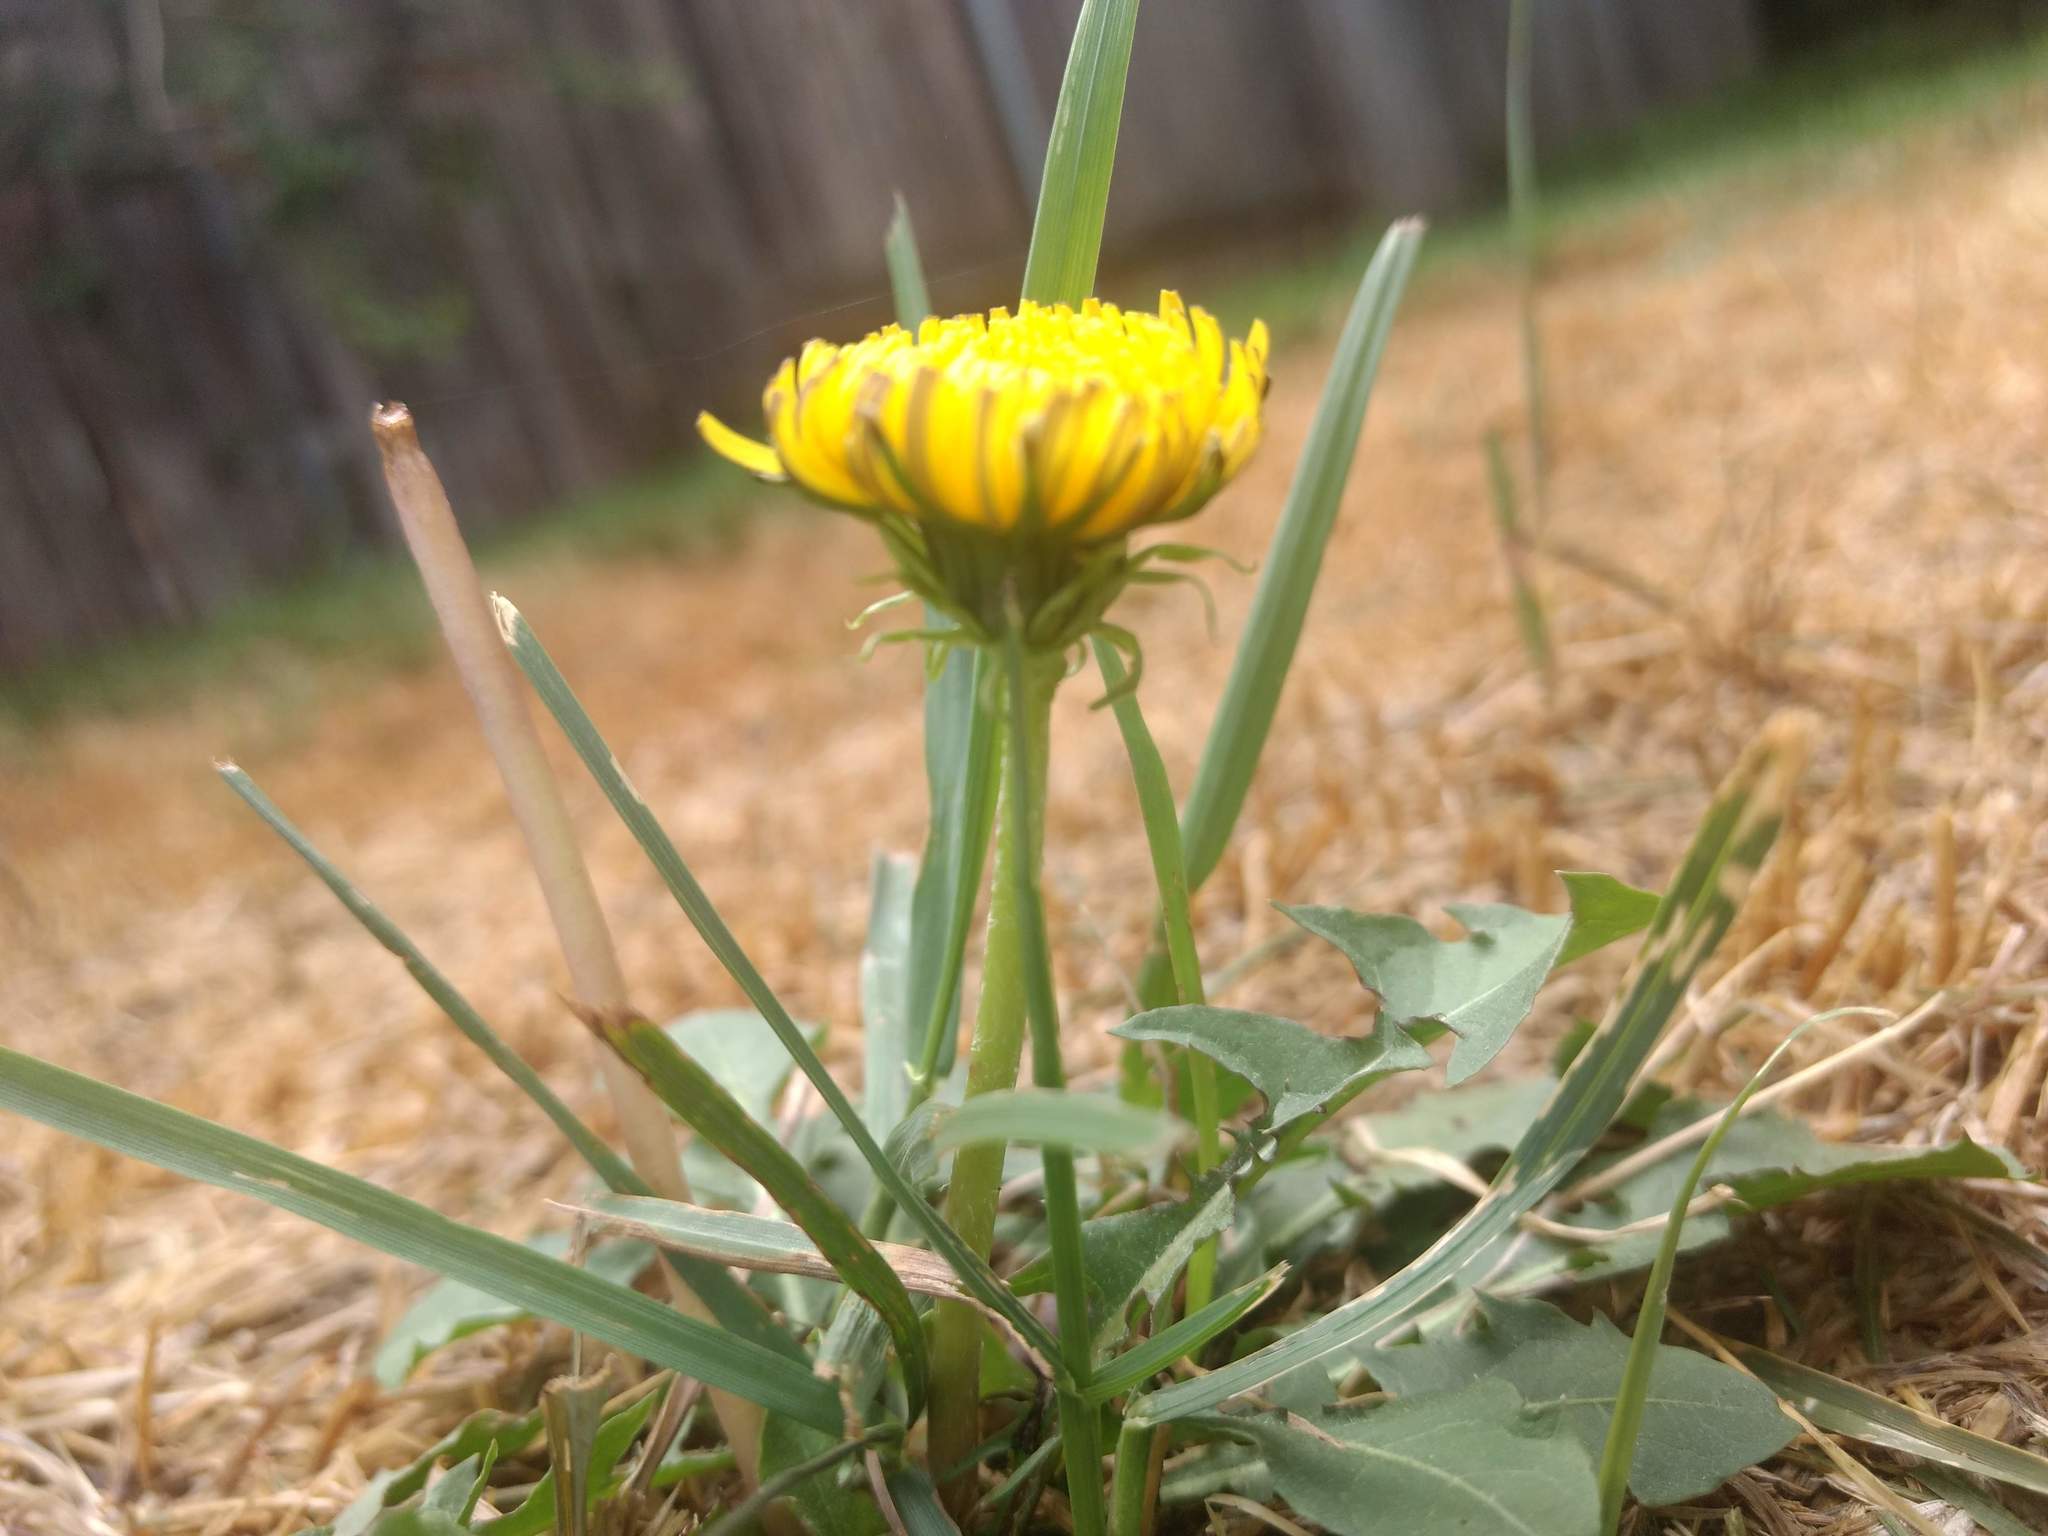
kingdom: Plantae
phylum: Tracheophyta
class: Magnoliopsida
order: Asterales
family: Asteraceae
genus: Taraxacum
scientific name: Taraxacum
